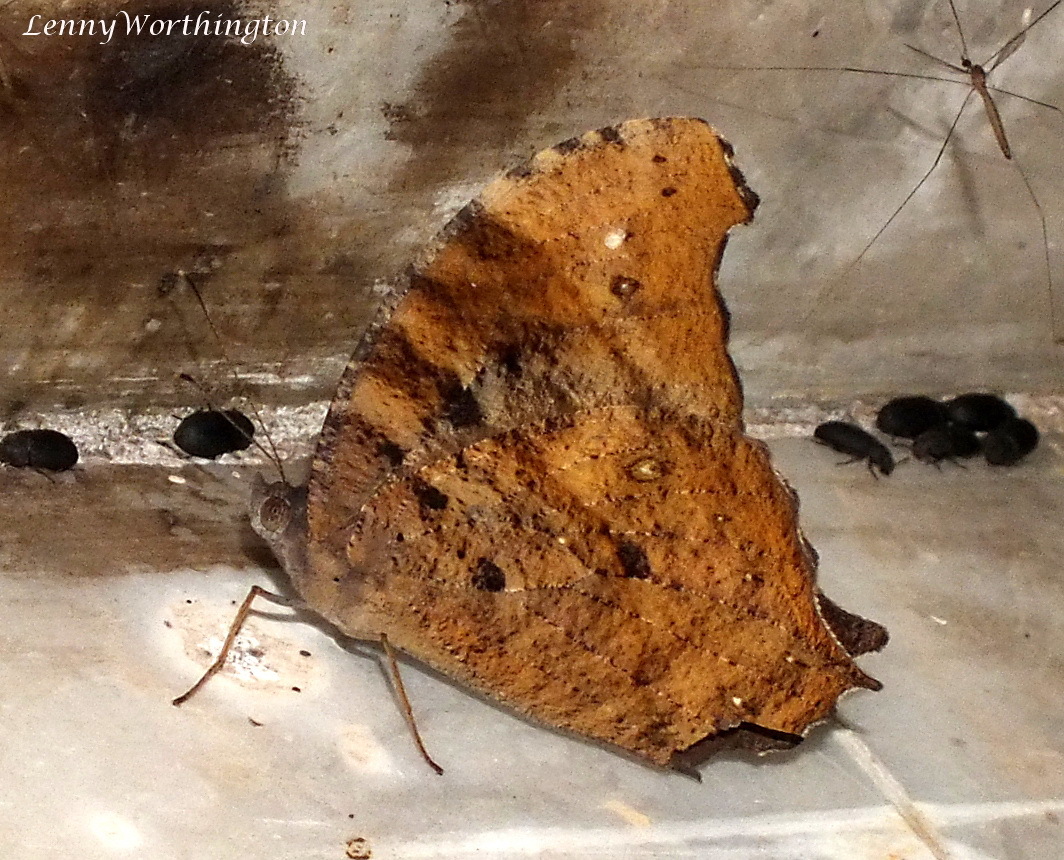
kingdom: Animalia
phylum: Arthropoda
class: Insecta
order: Lepidoptera
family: Nymphalidae
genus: Melanitis
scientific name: Melanitis leda
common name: Twilight brown
